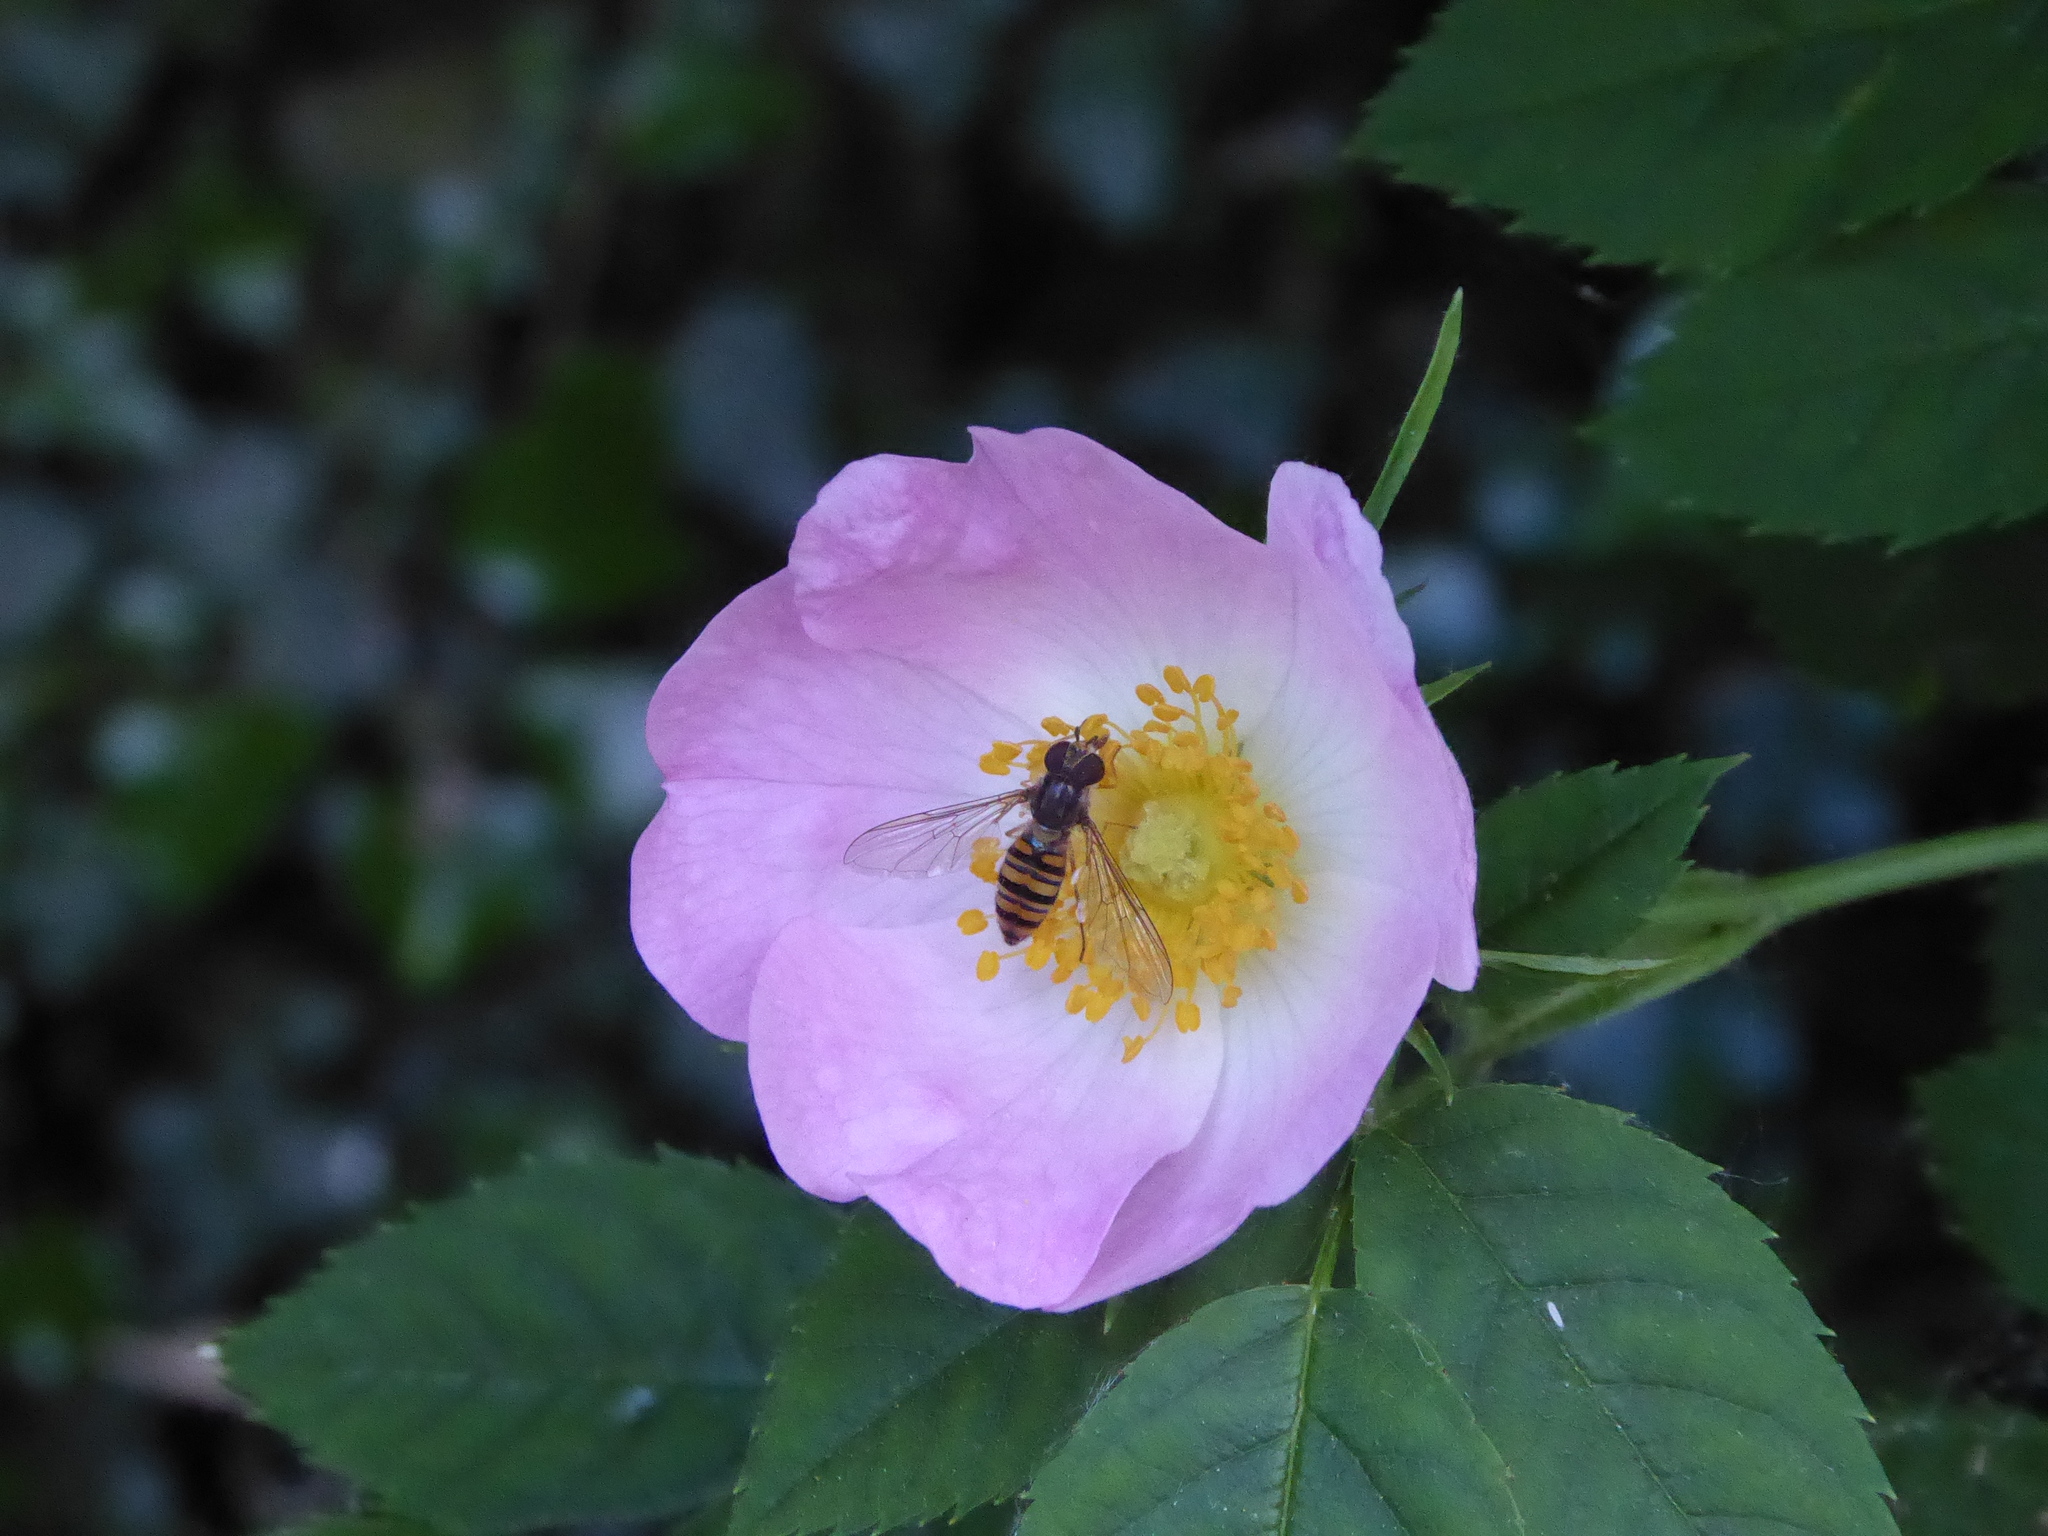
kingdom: Animalia
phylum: Arthropoda
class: Insecta
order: Diptera
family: Syrphidae
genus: Episyrphus
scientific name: Episyrphus balteatus
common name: Marmalade hoverfly
